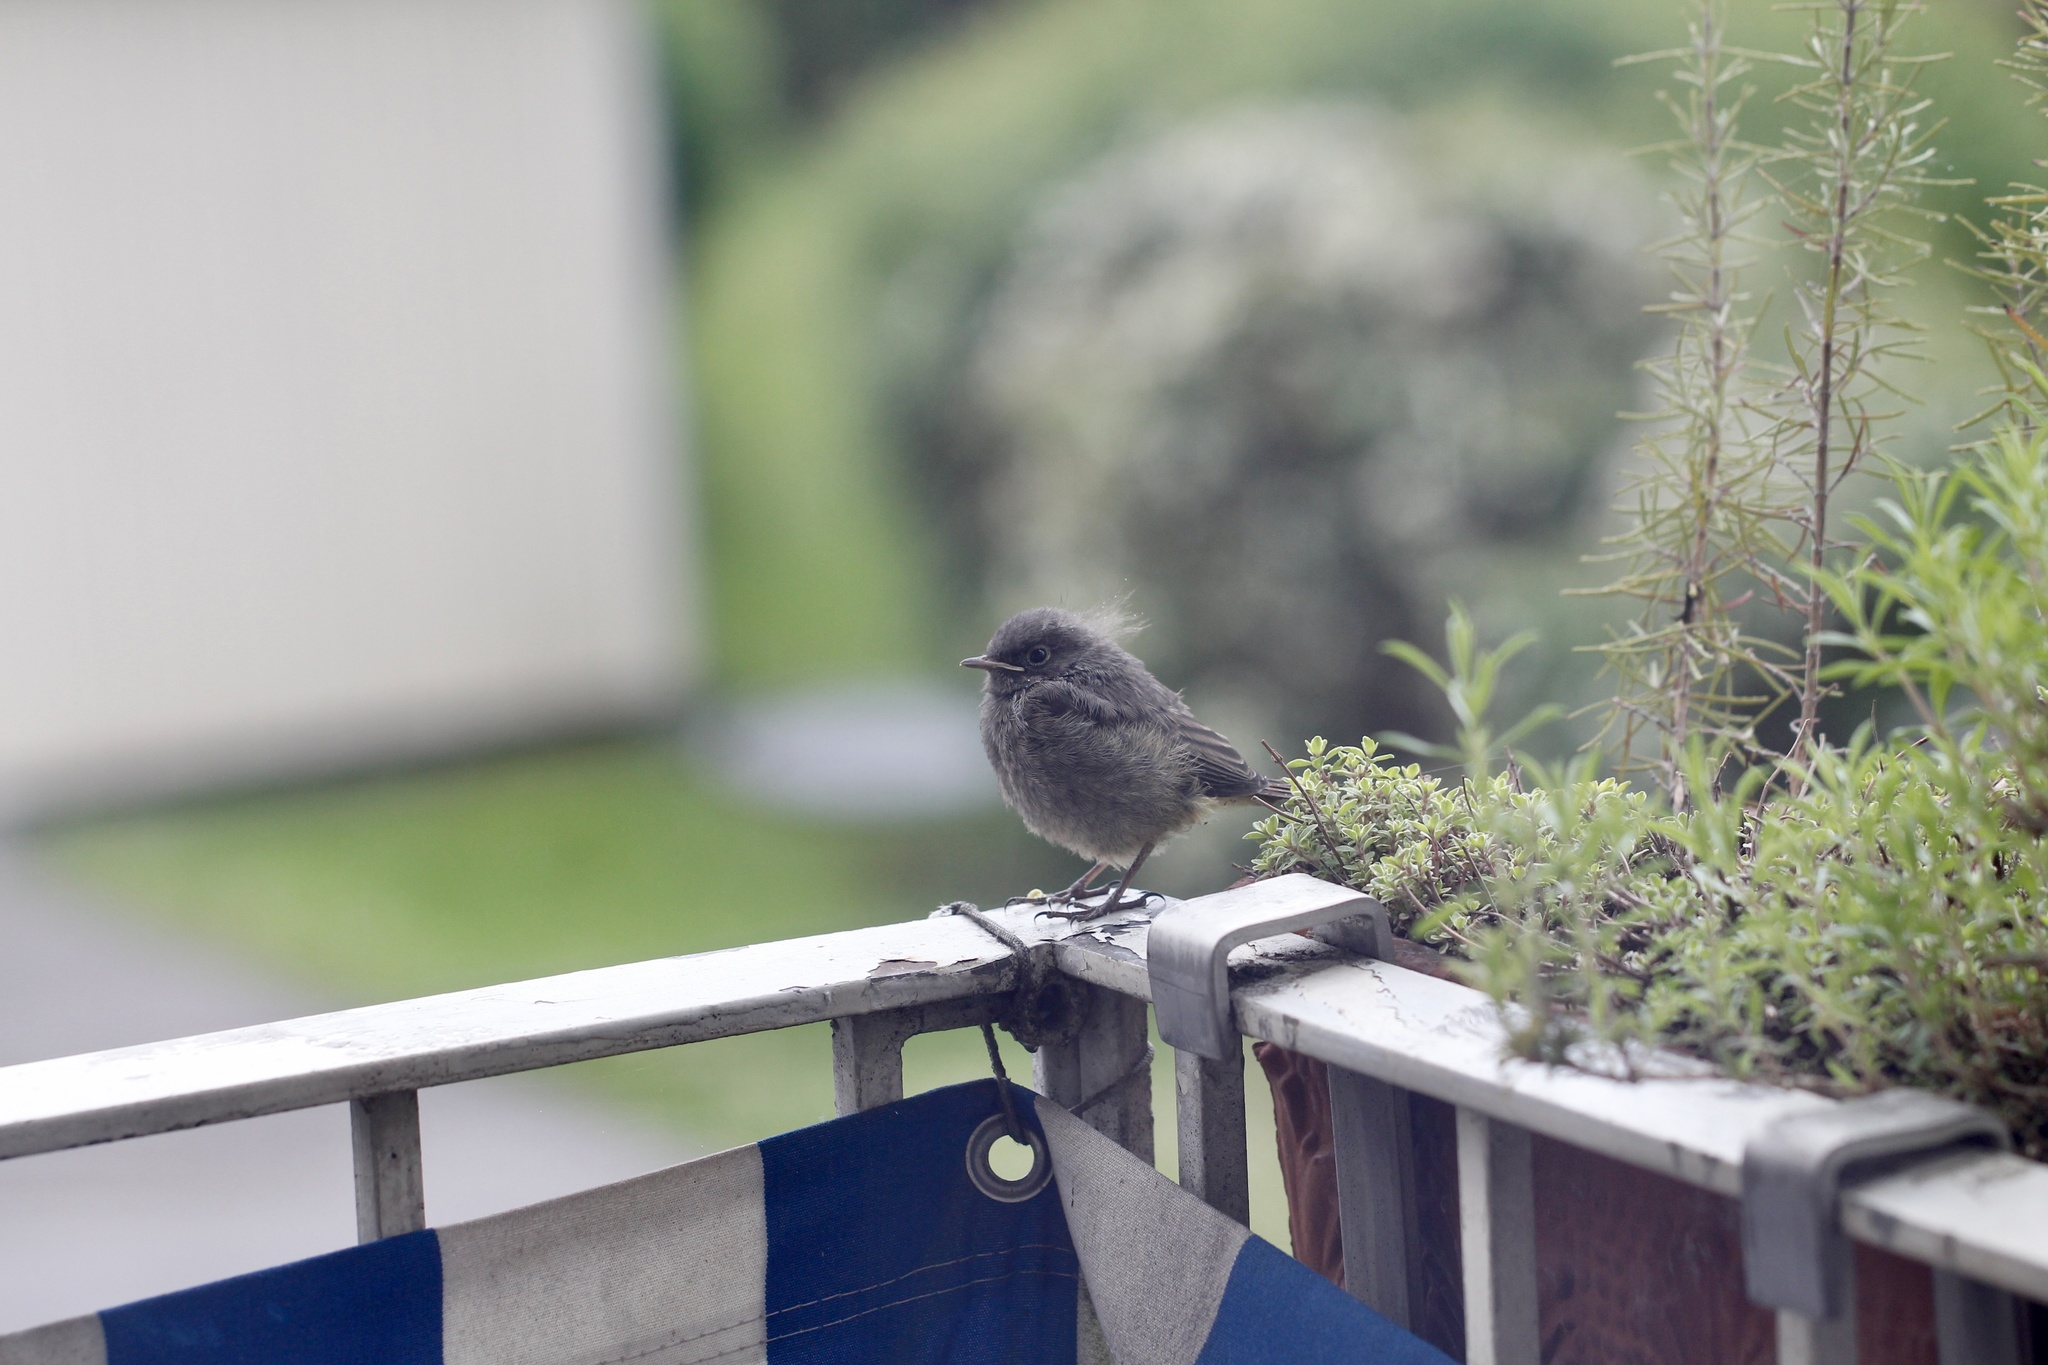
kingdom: Animalia
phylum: Chordata
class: Aves
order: Passeriformes
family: Muscicapidae
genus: Phoenicurus
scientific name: Phoenicurus ochruros
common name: Black redstart
